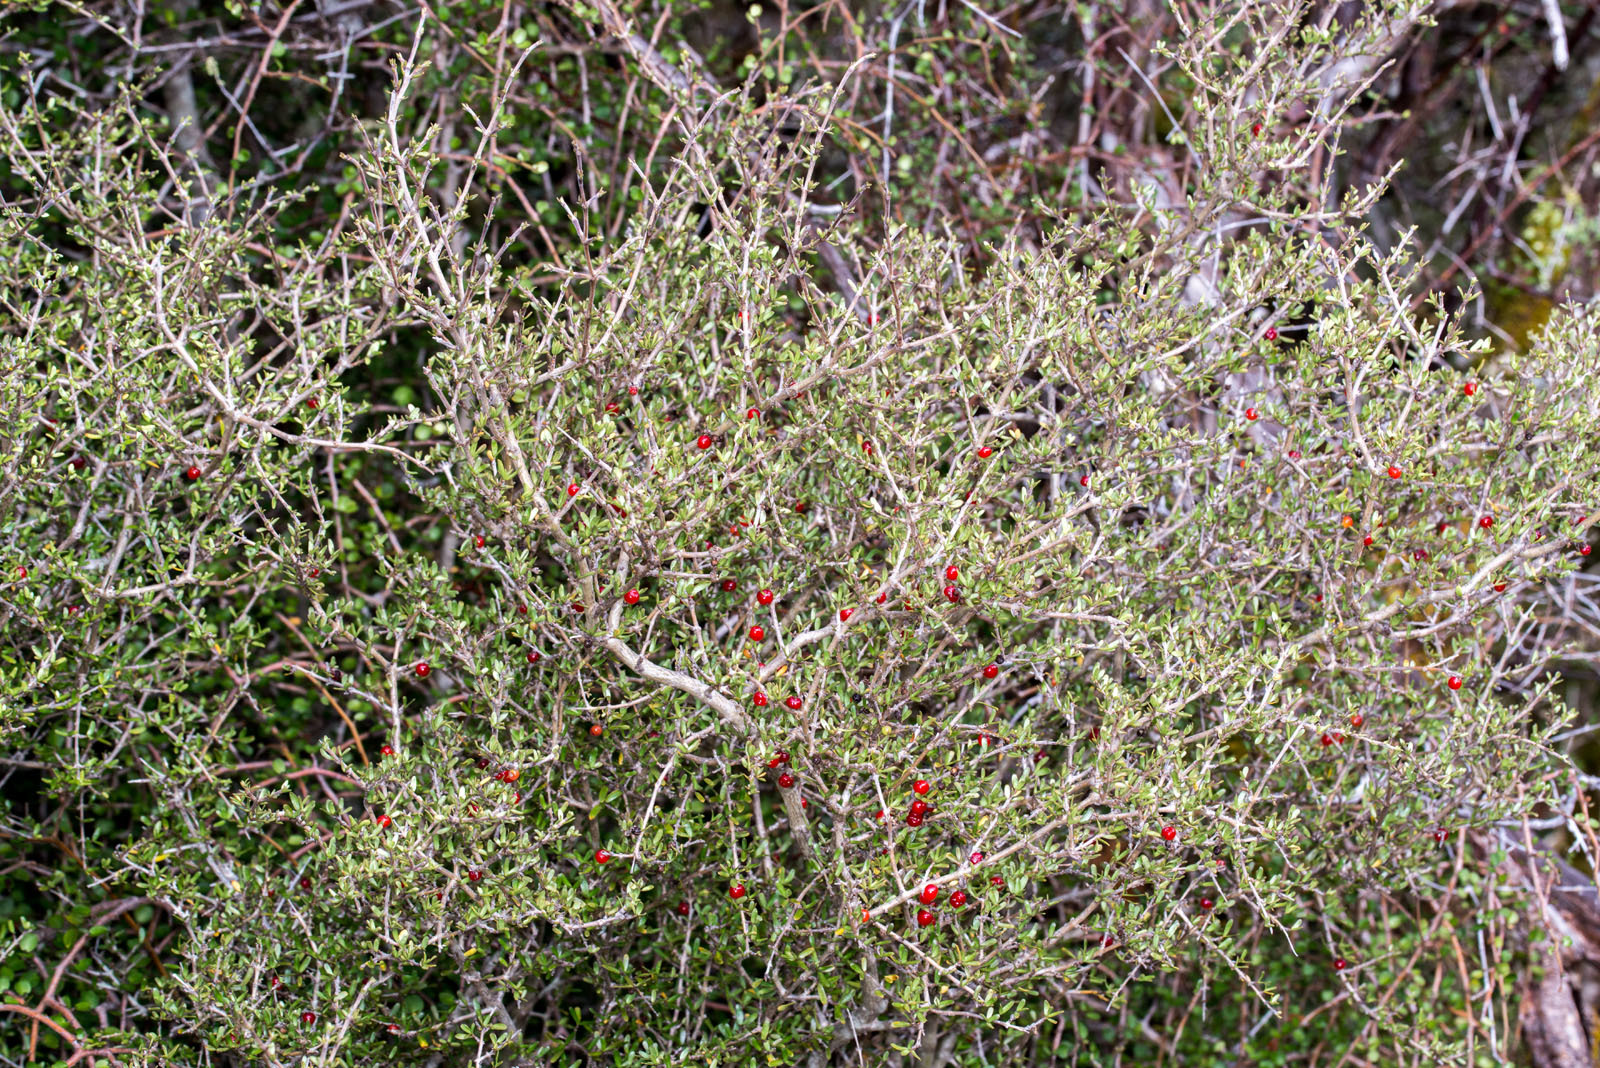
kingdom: Plantae
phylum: Tracheophyta
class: Magnoliopsida
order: Gentianales
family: Rubiaceae
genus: Coprosma
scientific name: Coprosma decurva
